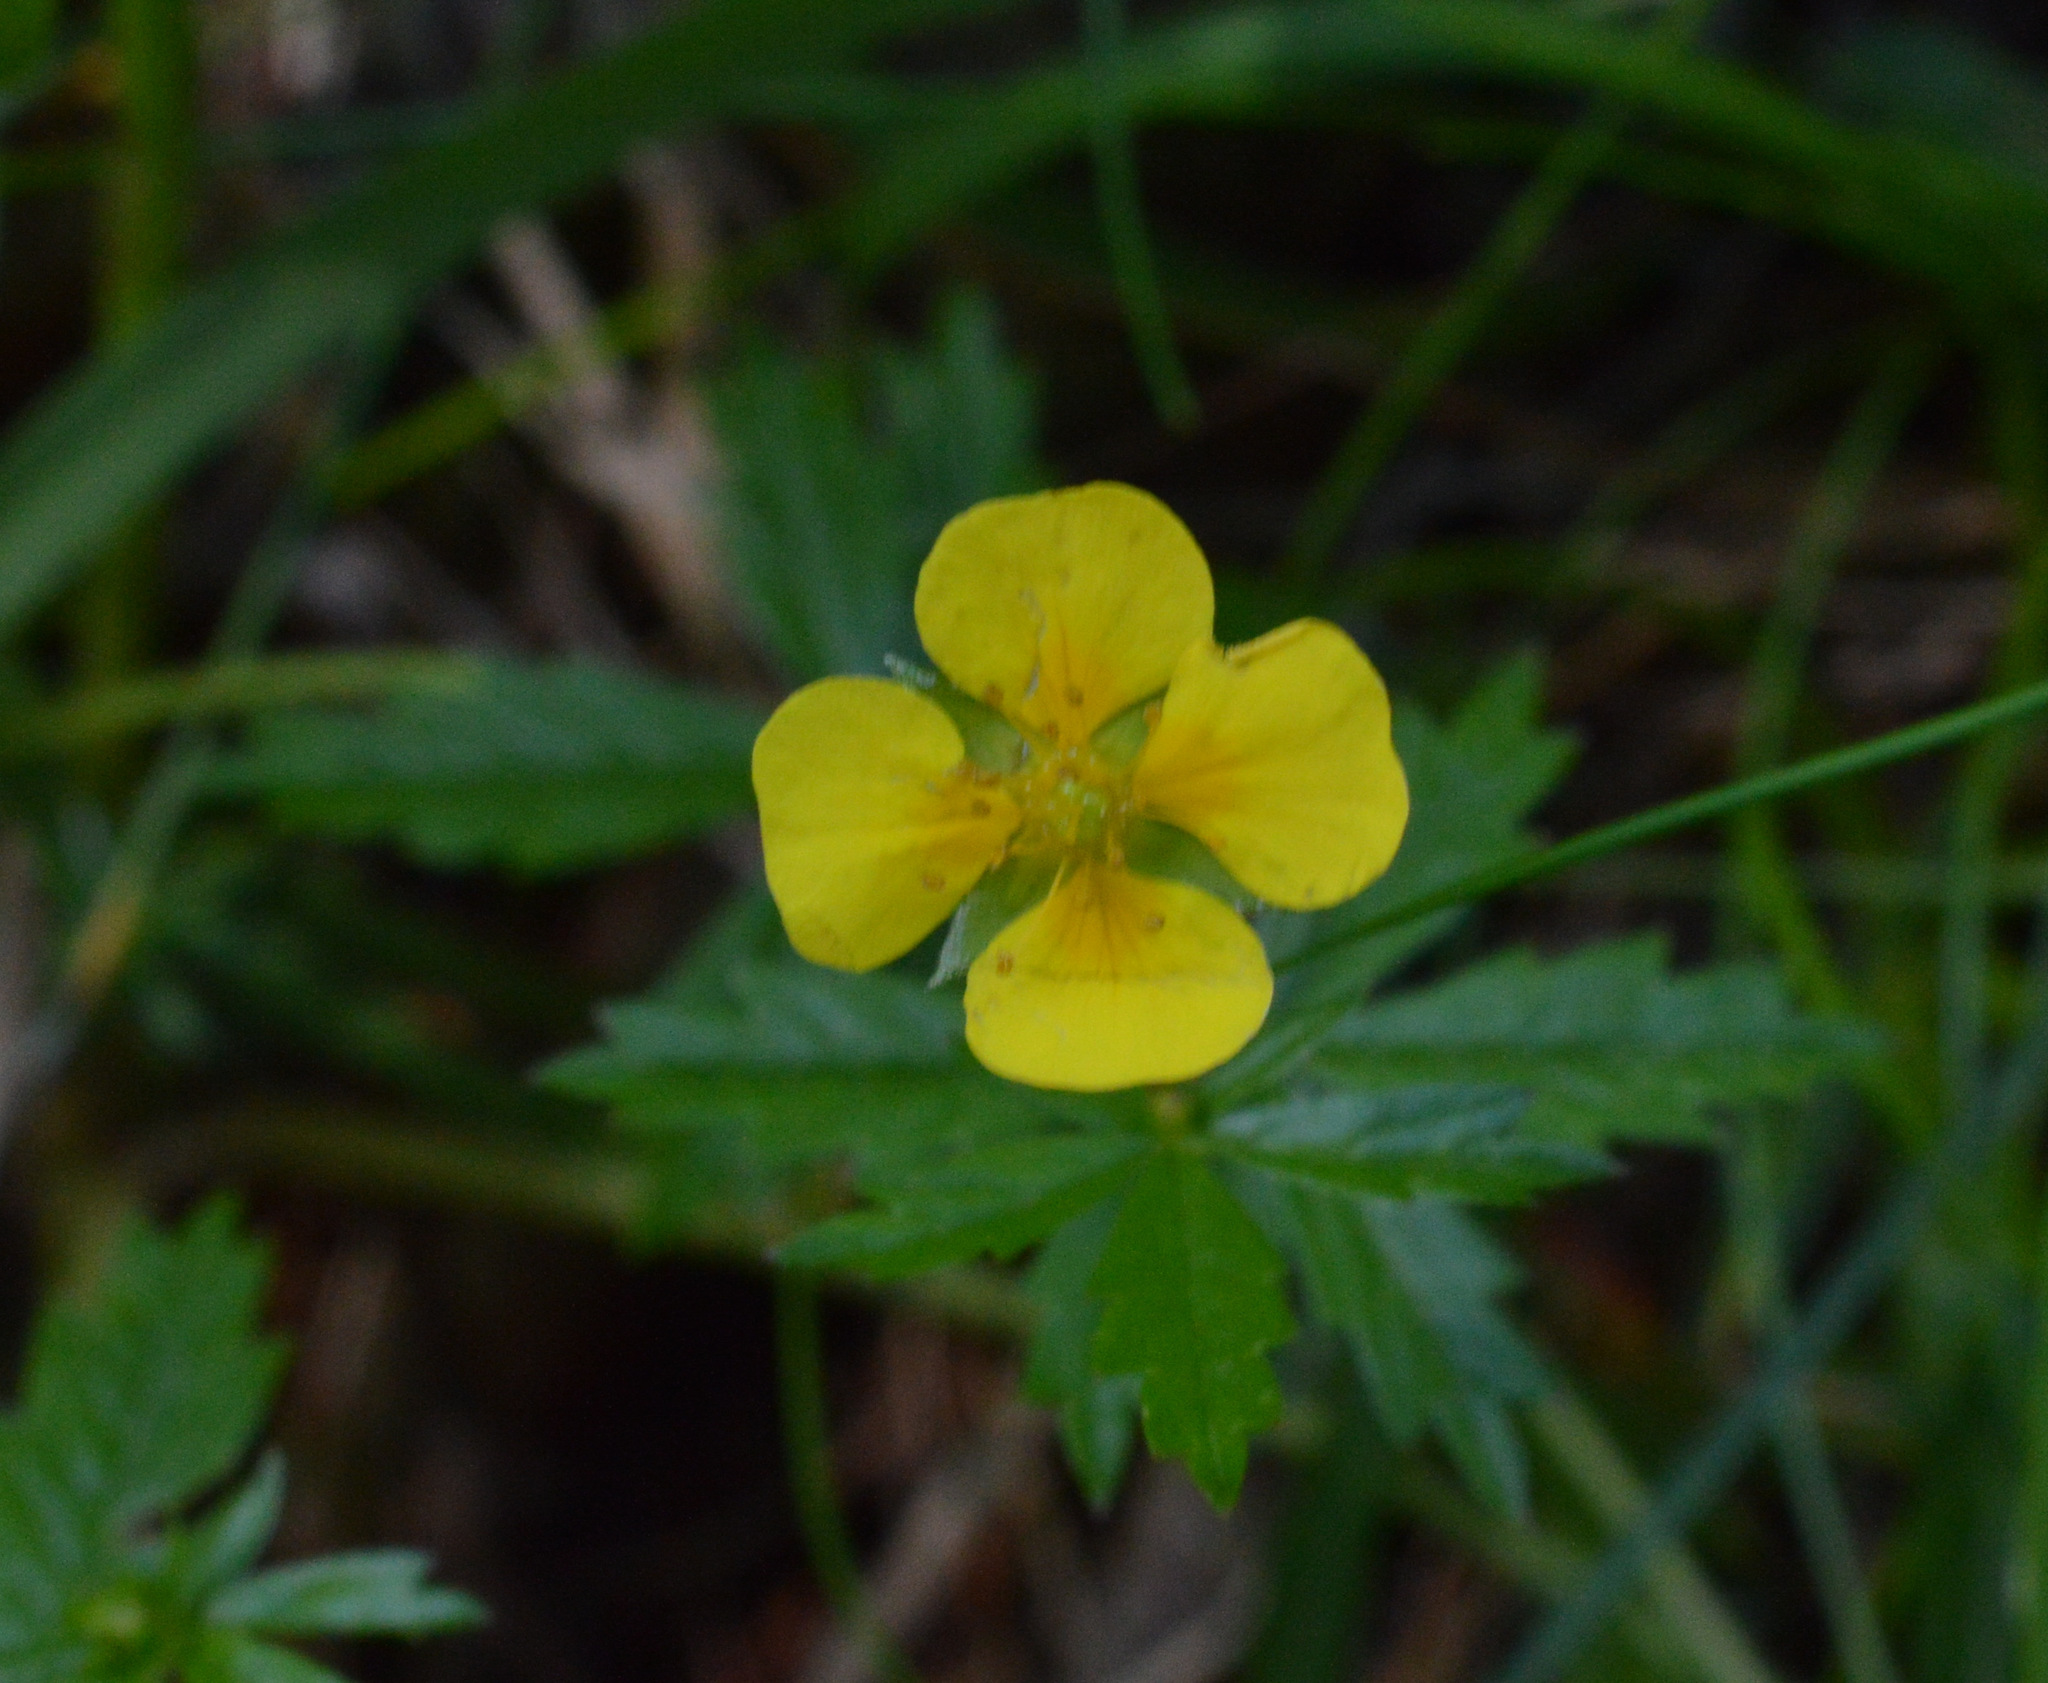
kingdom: Plantae
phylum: Tracheophyta
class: Magnoliopsida
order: Rosales
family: Rosaceae
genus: Potentilla
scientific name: Potentilla erecta
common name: Tormentil
